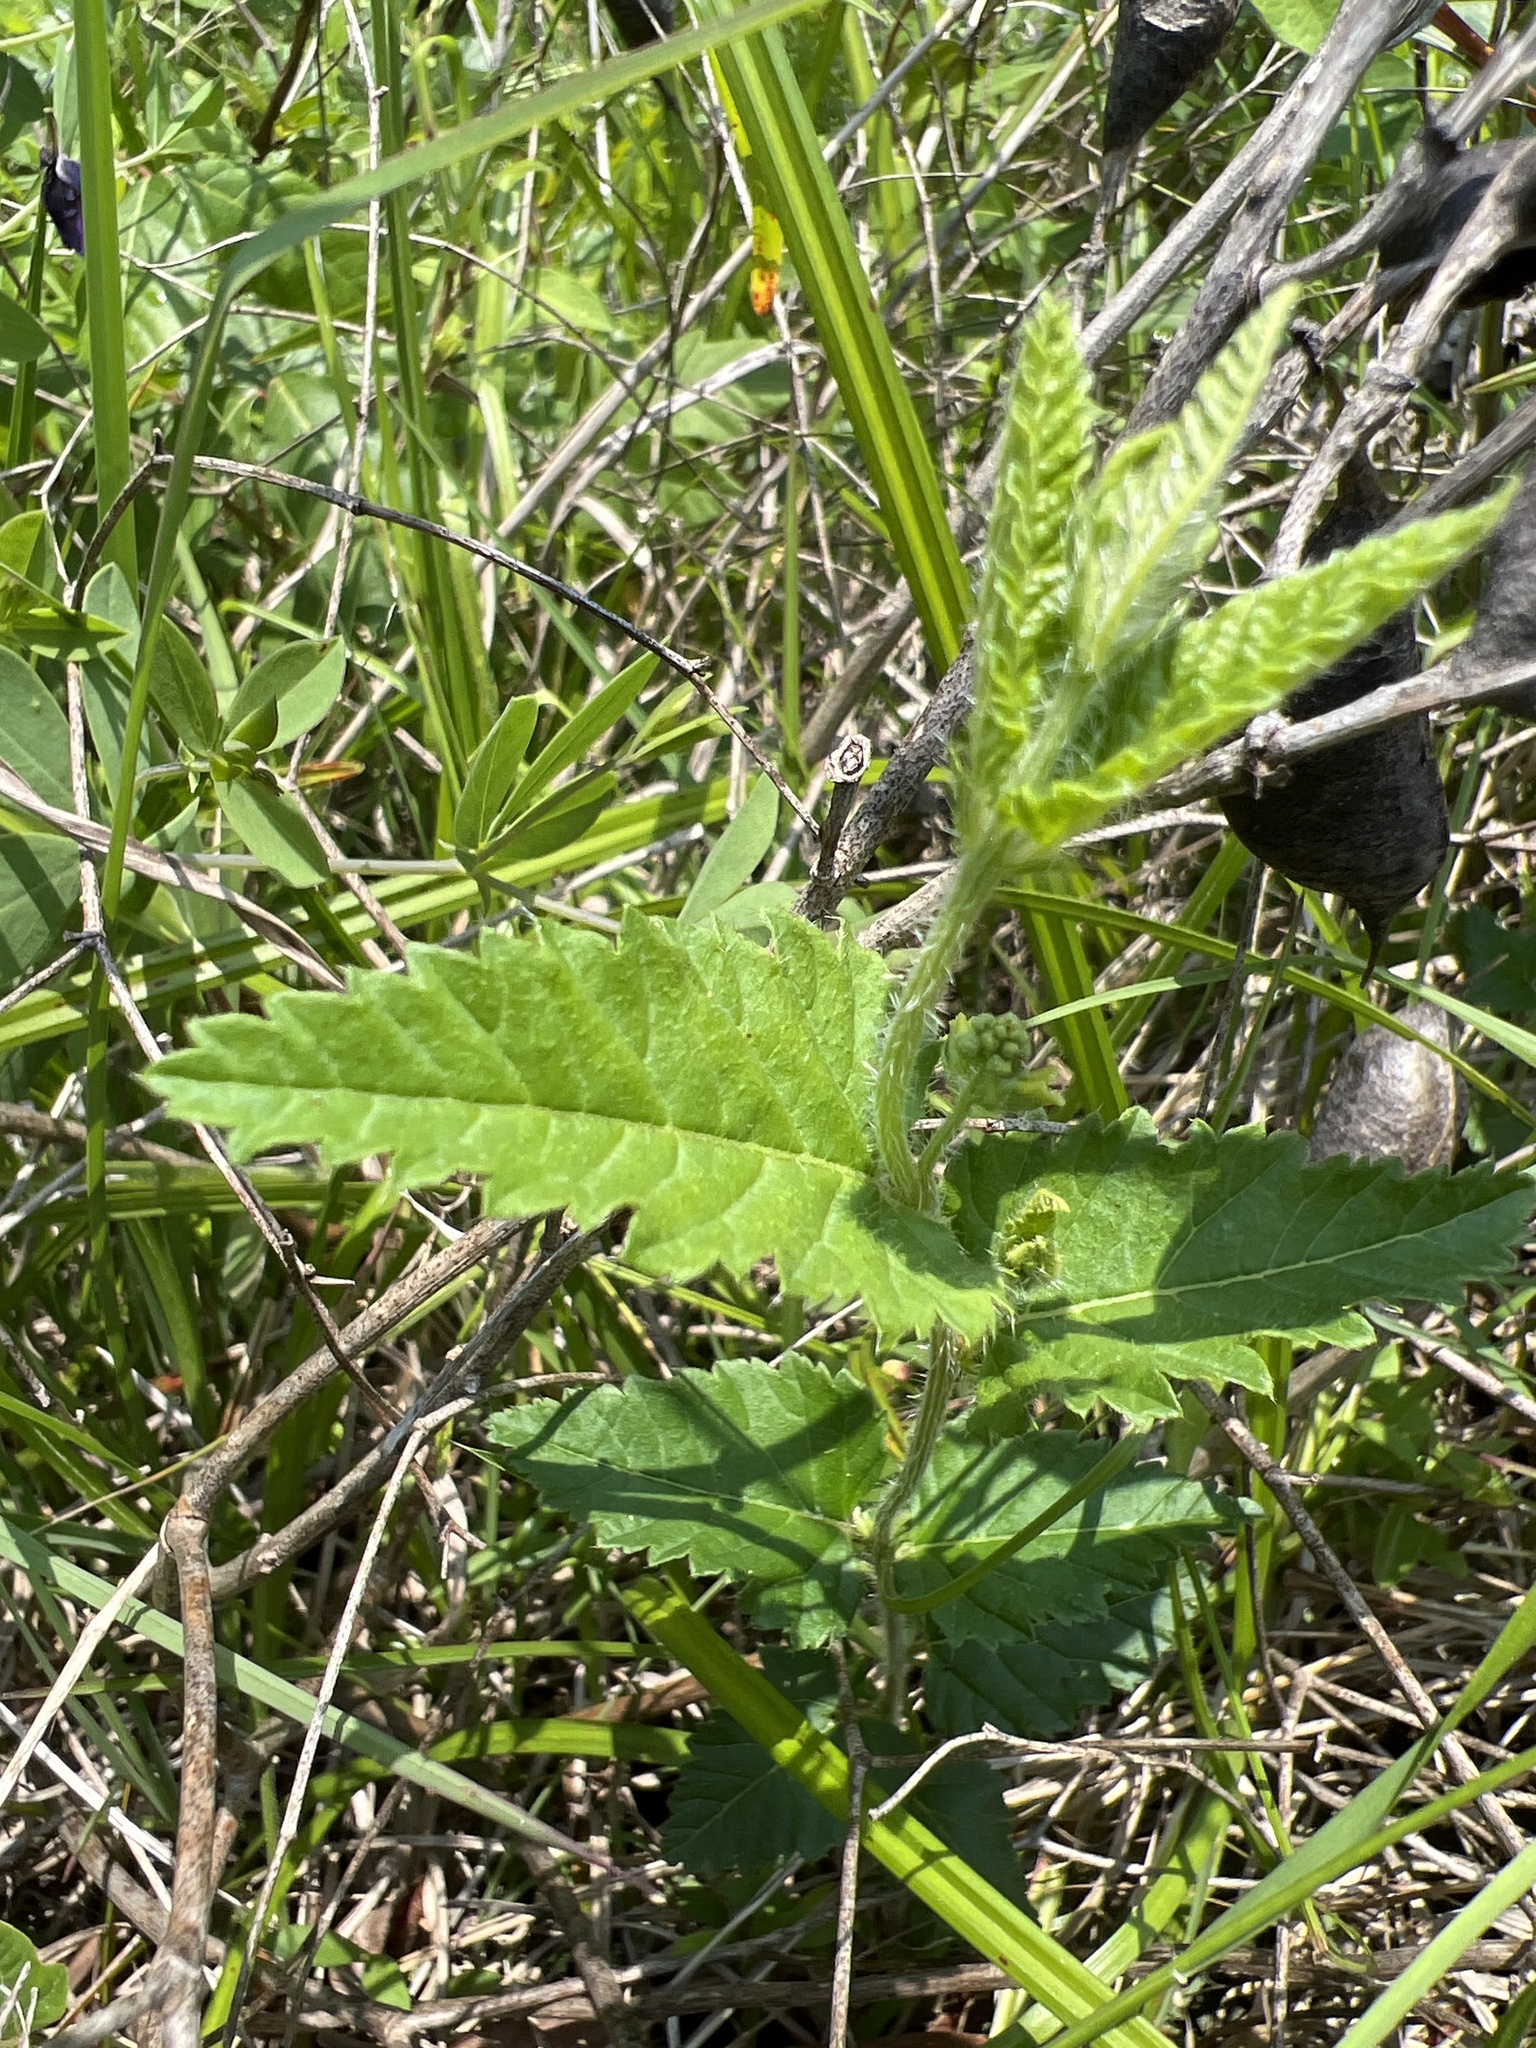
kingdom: Plantae
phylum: Tracheophyta
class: Magnoliopsida
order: Malpighiales
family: Euphorbiaceae
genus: Tragia
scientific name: Tragia urticifolia
